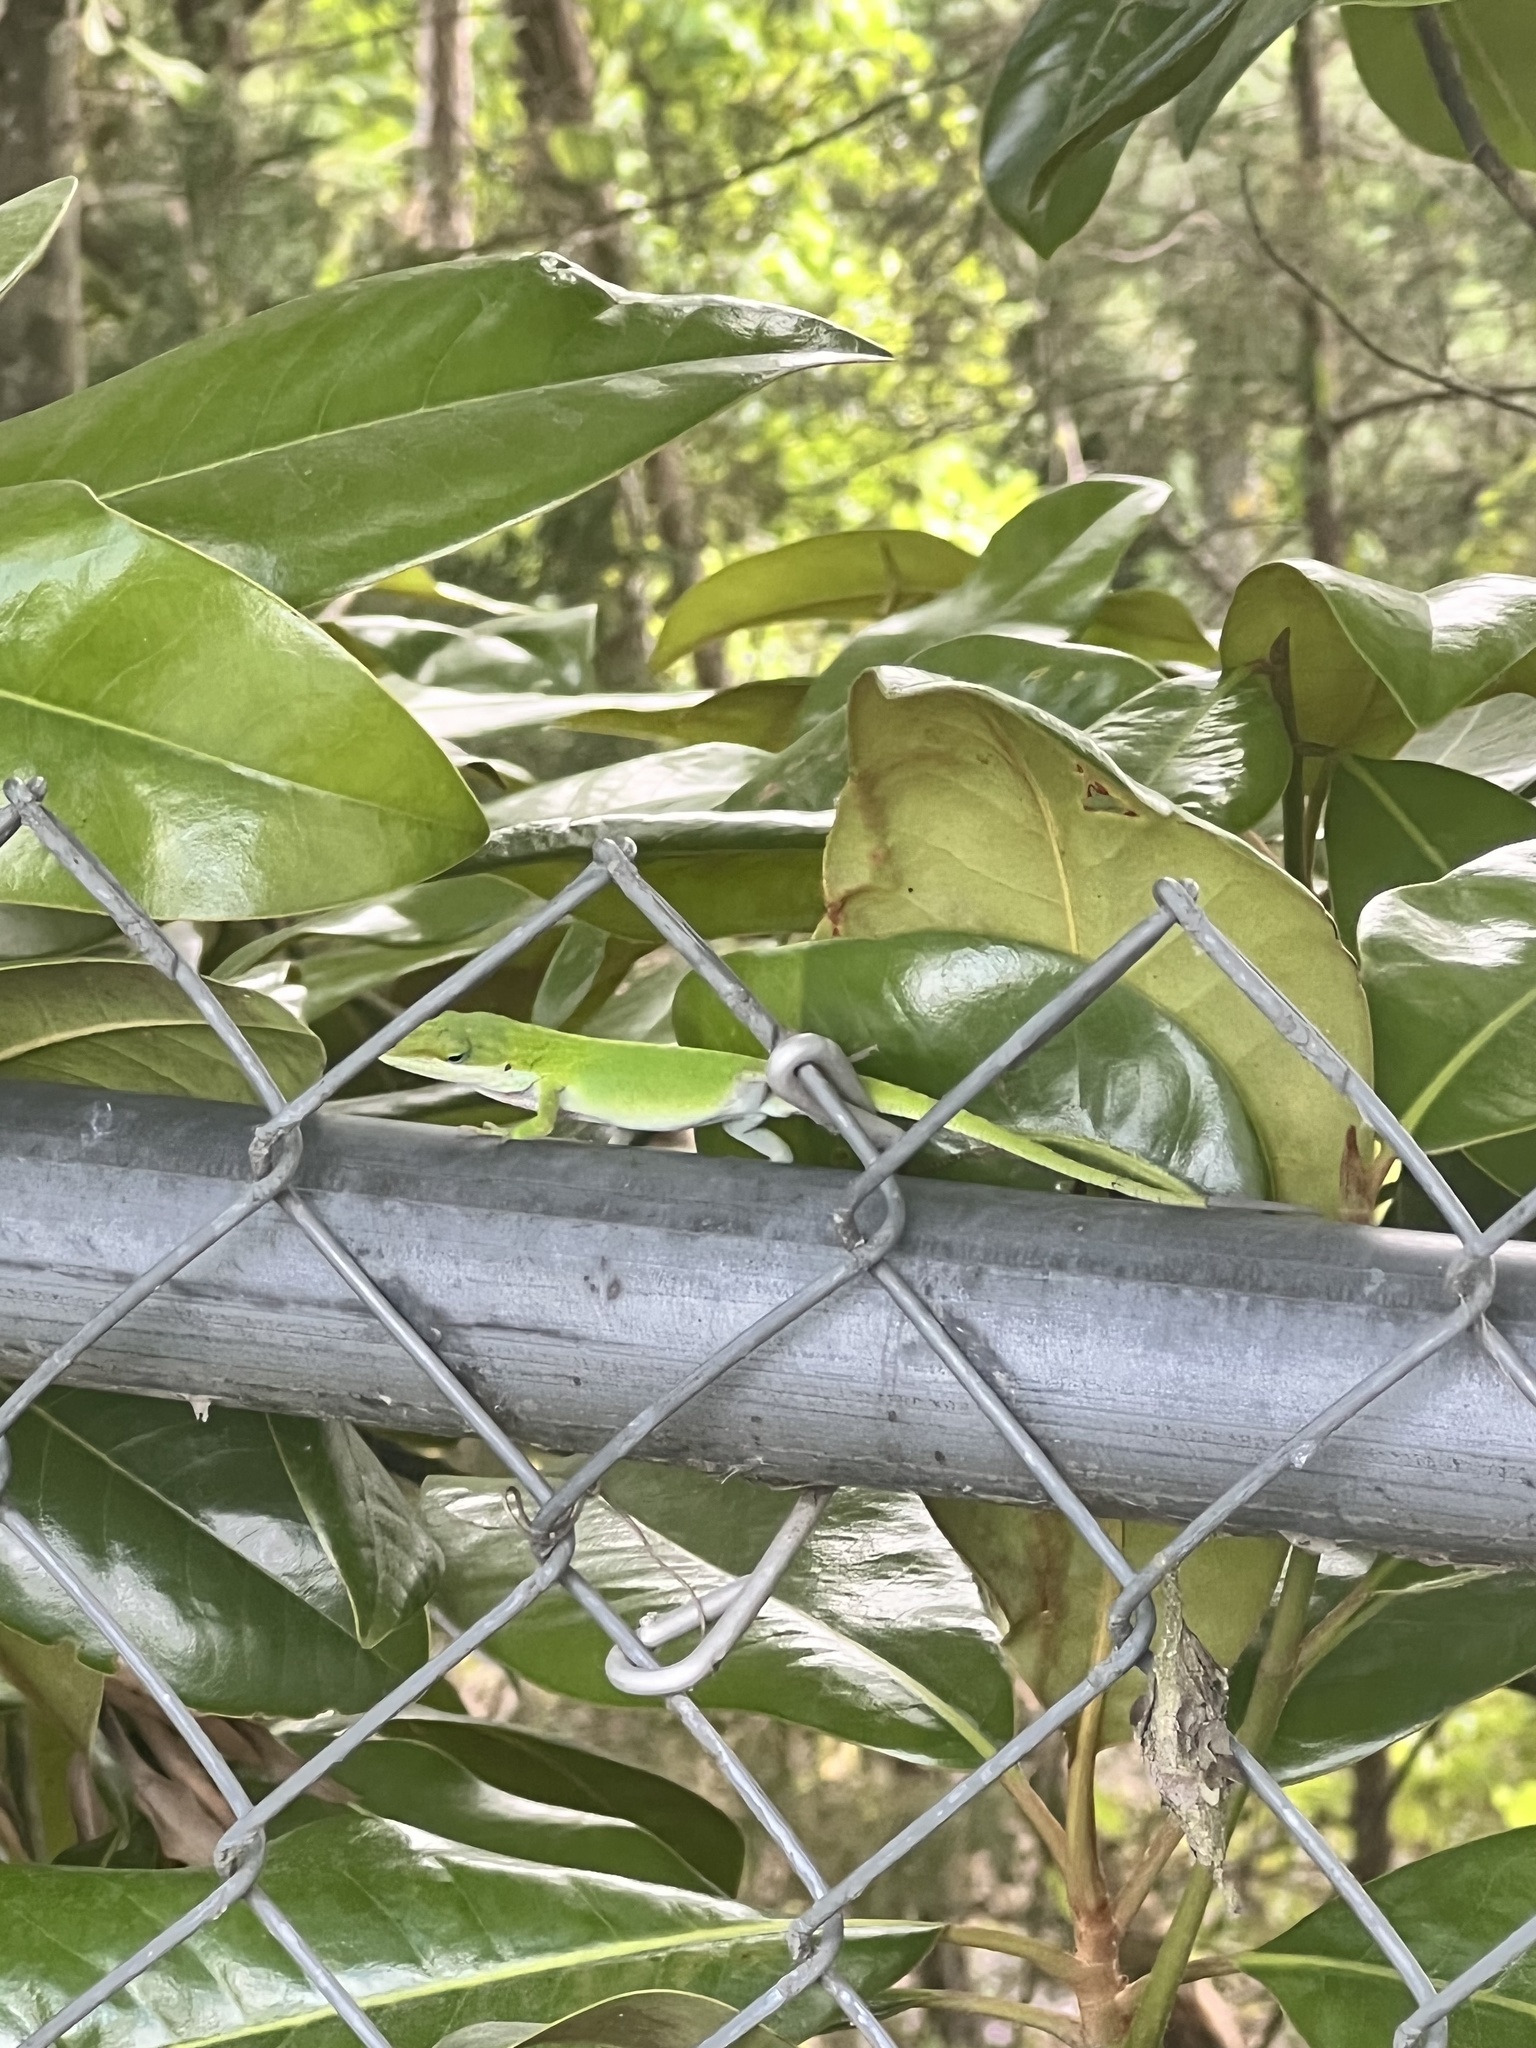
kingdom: Animalia
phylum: Chordata
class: Squamata
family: Dactyloidae
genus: Anolis
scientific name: Anolis carolinensis
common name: Green anole
